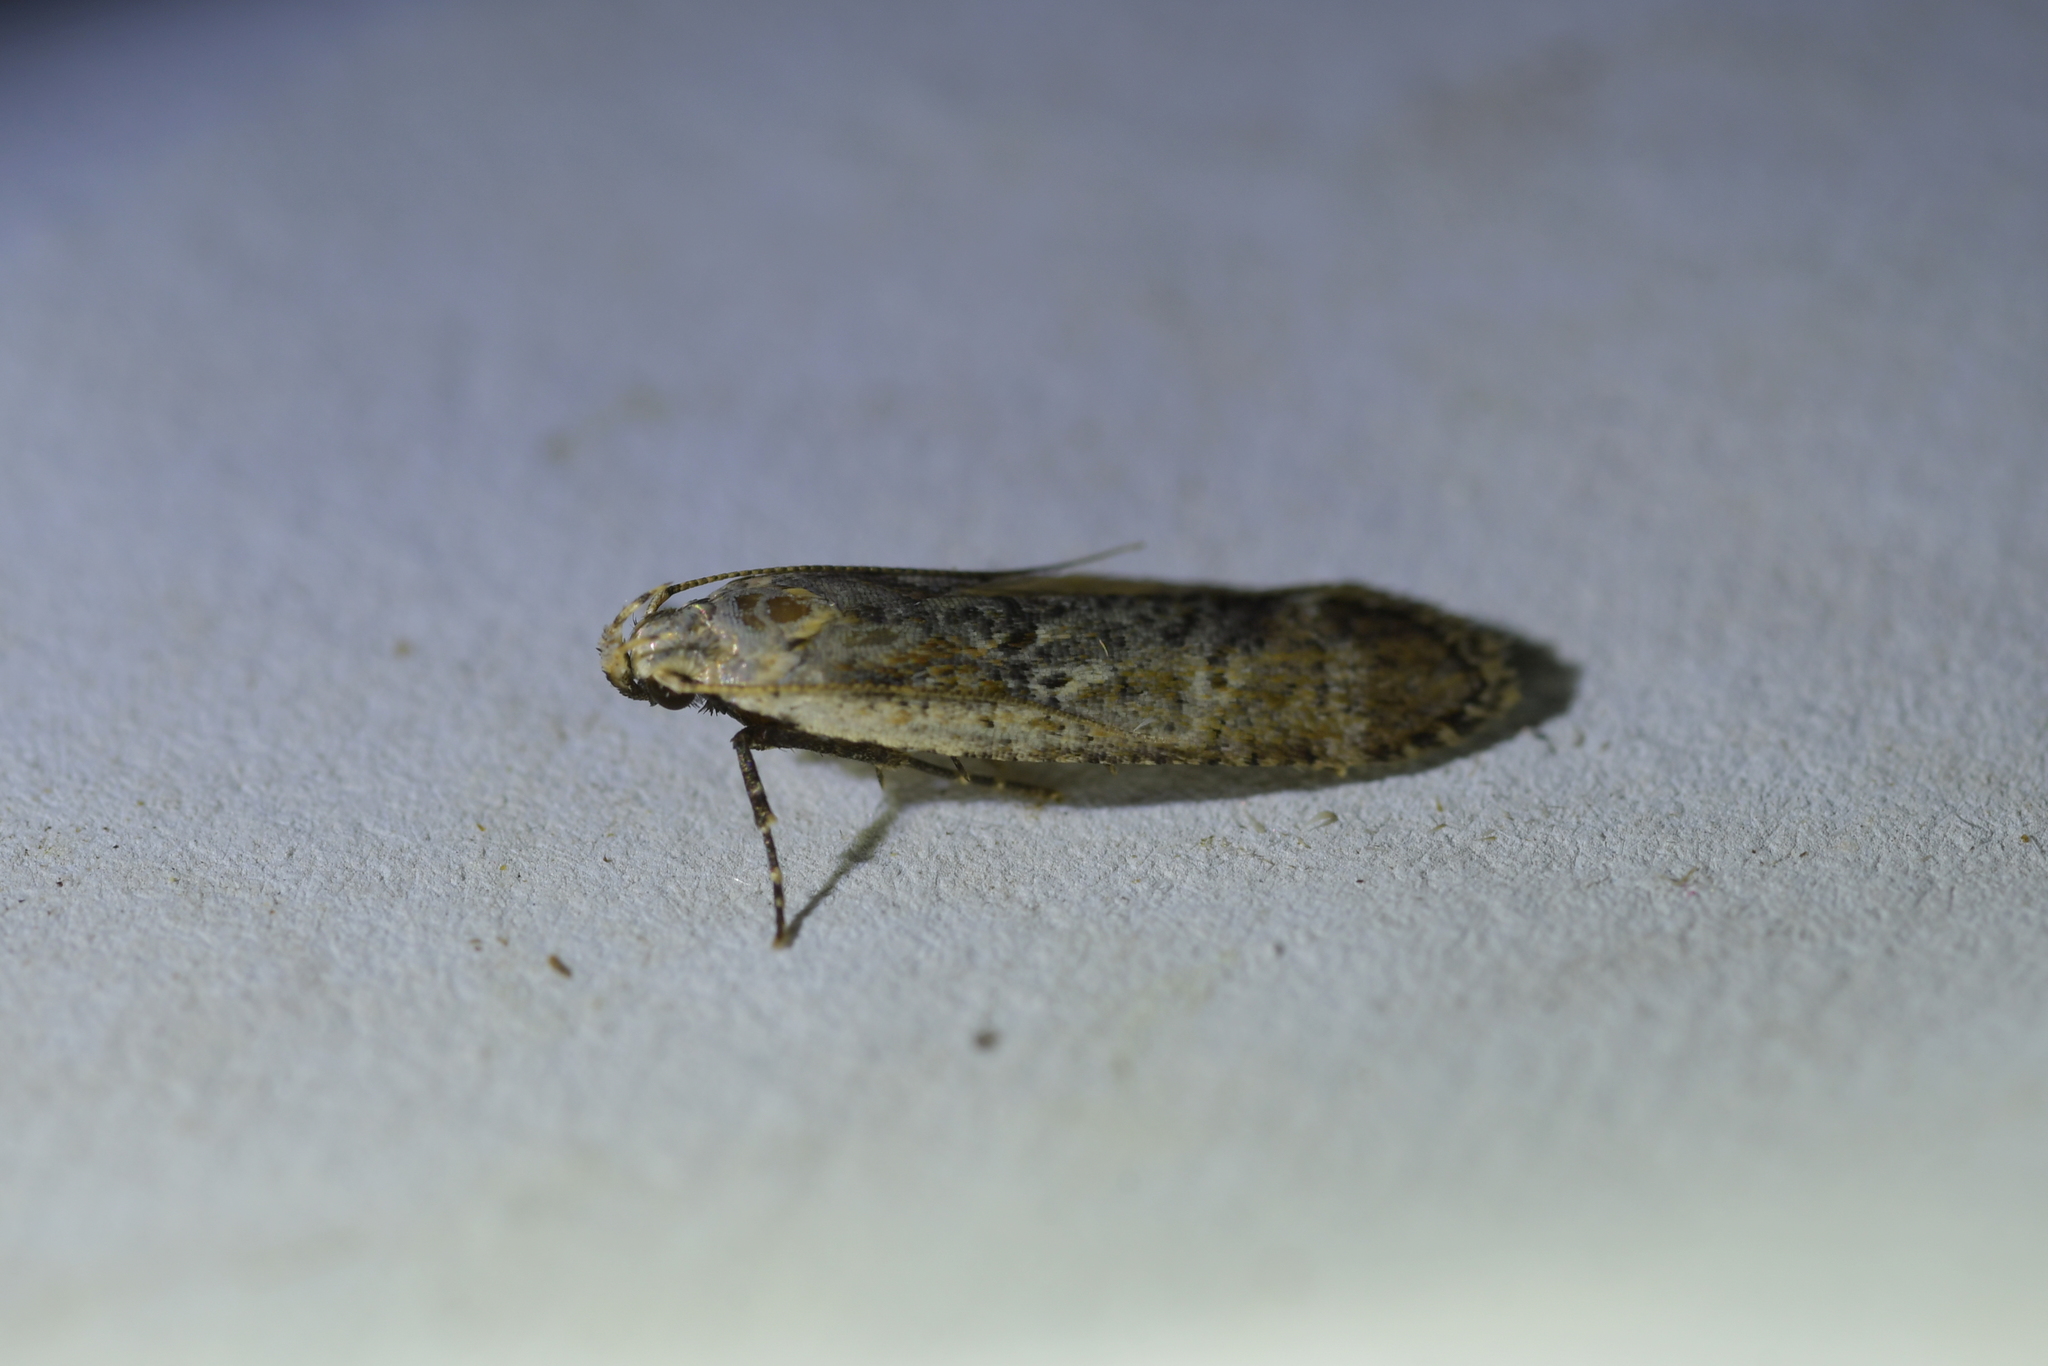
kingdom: Animalia
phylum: Arthropoda
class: Insecta
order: Lepidoptera
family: Gelechiidae
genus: Anisoplaca
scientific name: Anisoplaca achyrota
